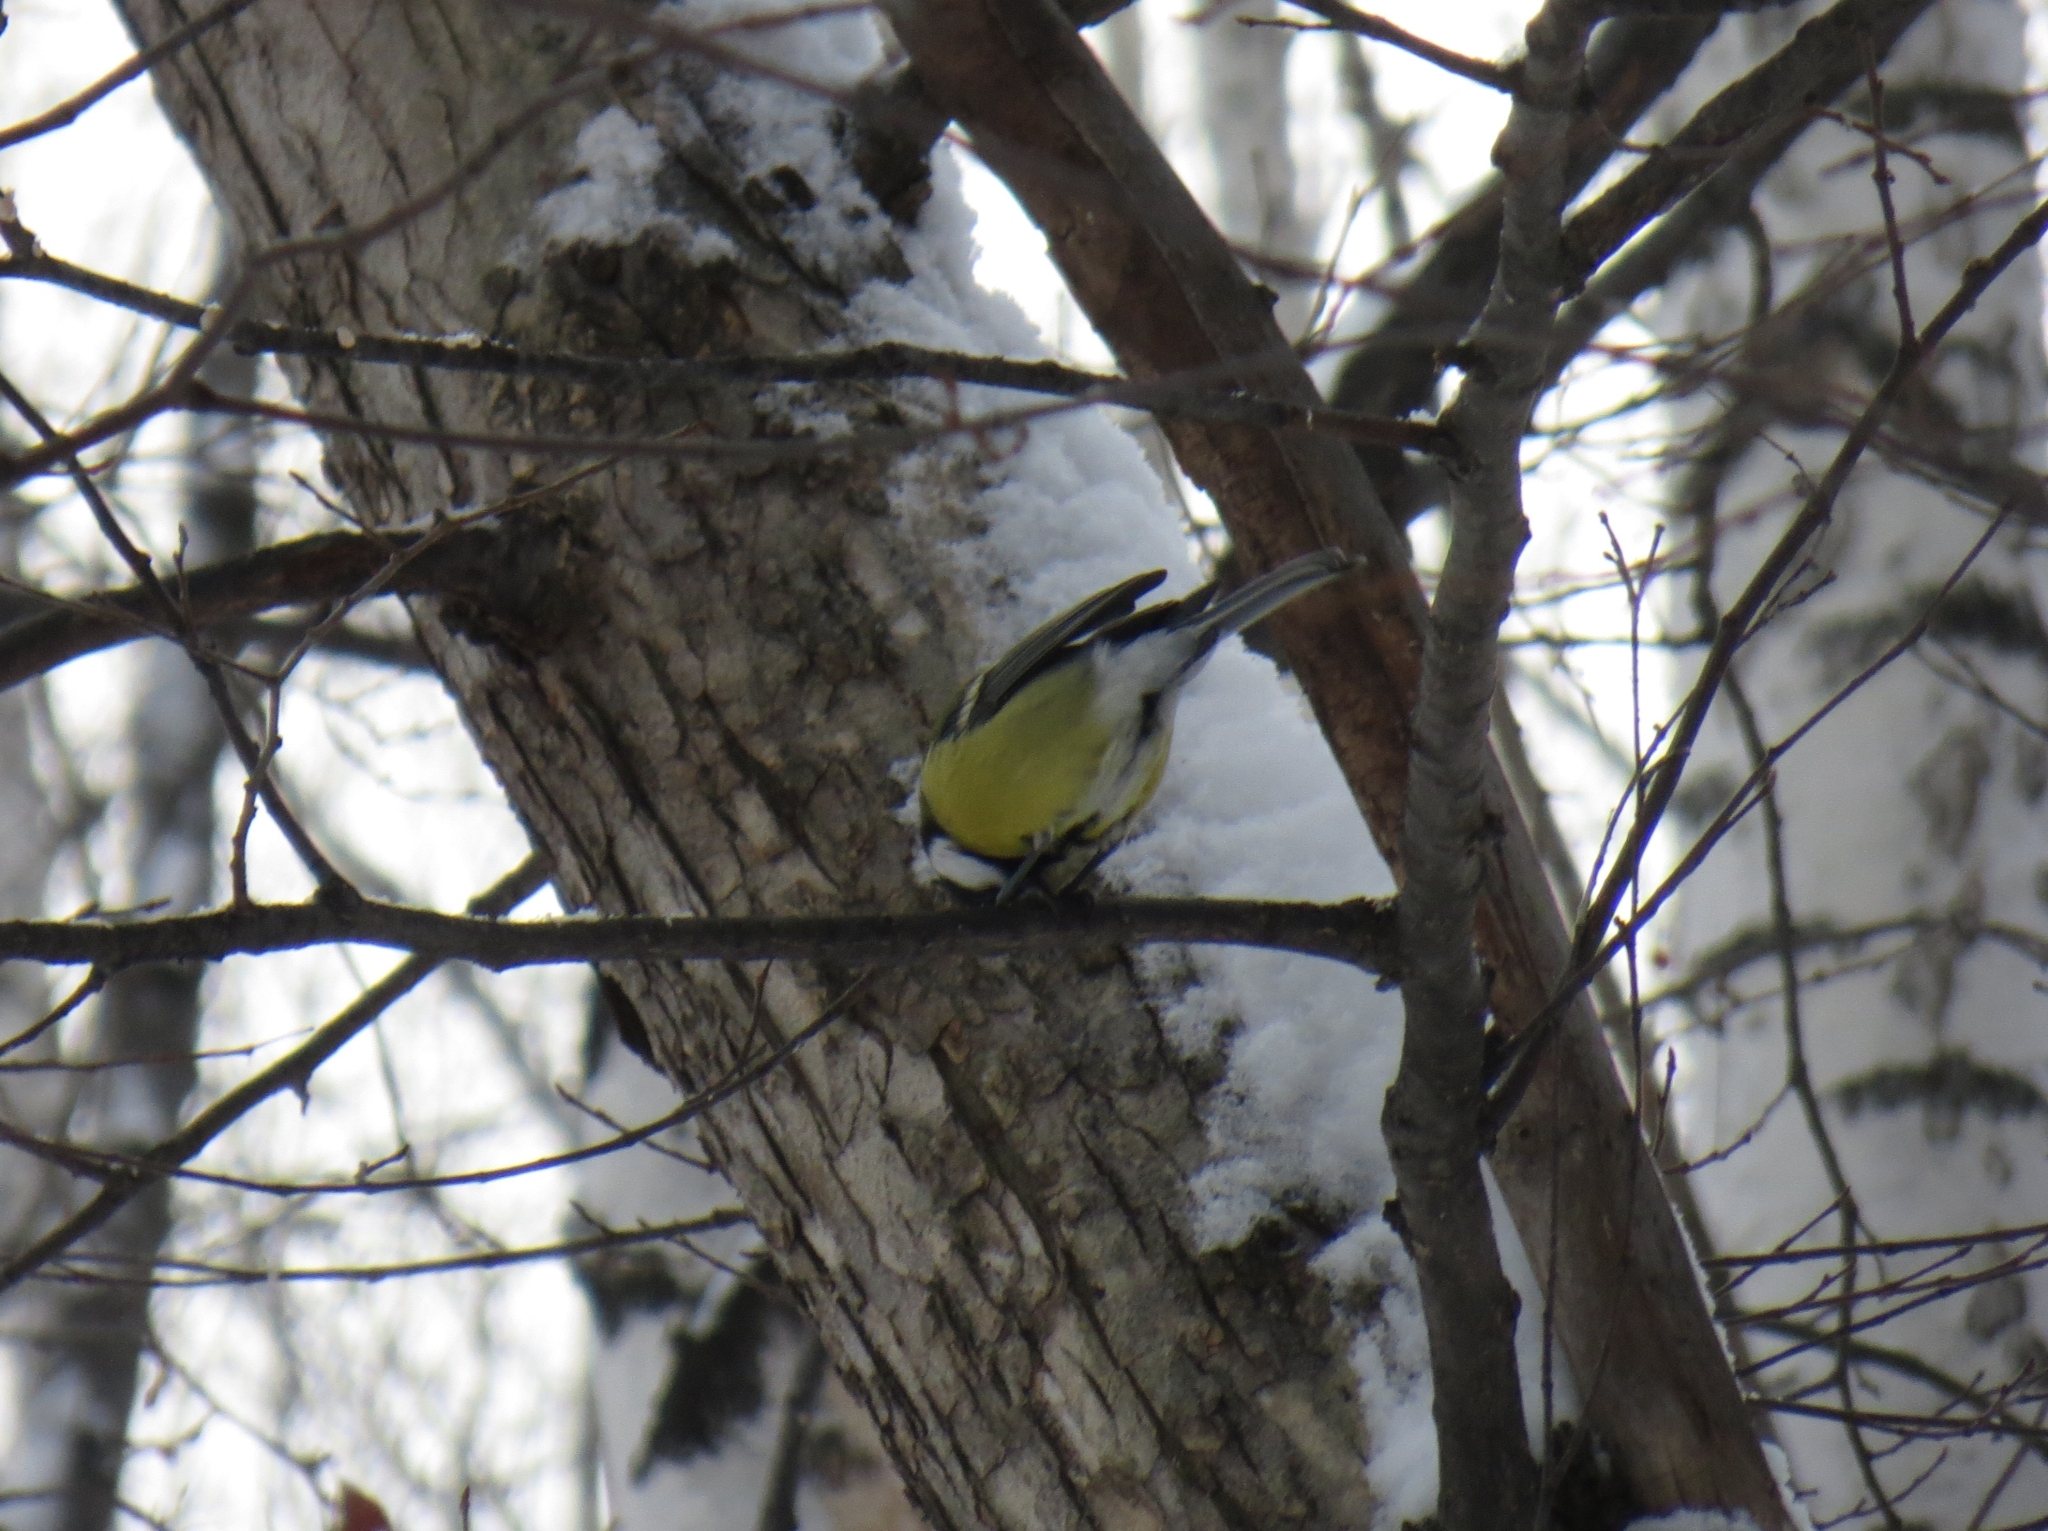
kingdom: Animalia
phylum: Chordata
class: Aves
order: Passeriformes
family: Paridae
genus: Parus
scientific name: Parus major
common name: Great tit
